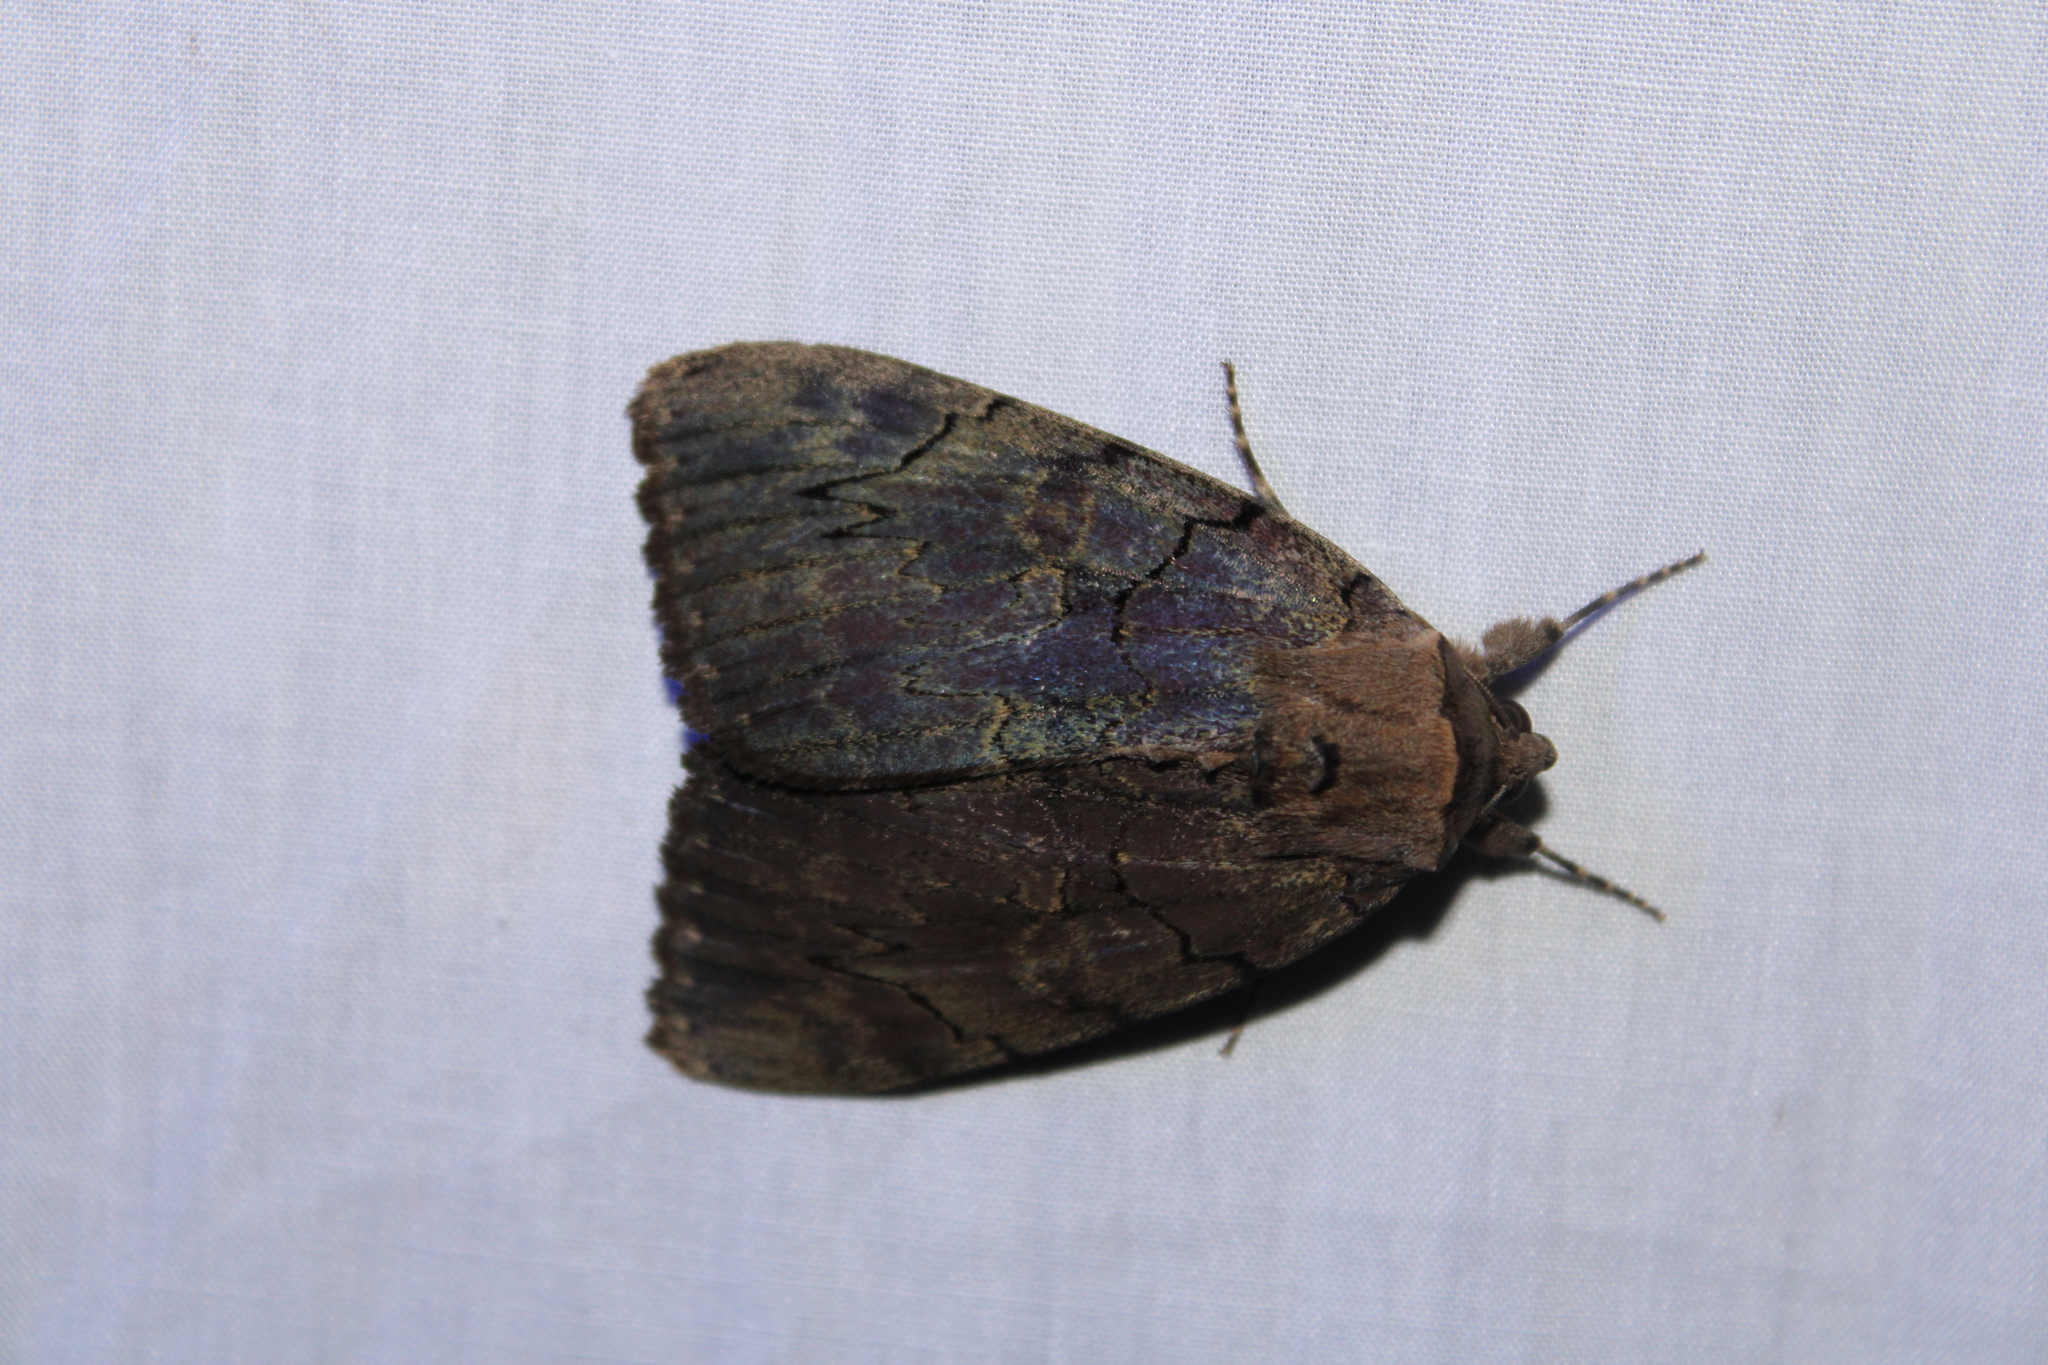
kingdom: Animalia
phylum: Arthropoda
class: Insecta
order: Lepidoptera
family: Erebidae
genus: Catocala
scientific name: Catocala cara
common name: Darling underwing
